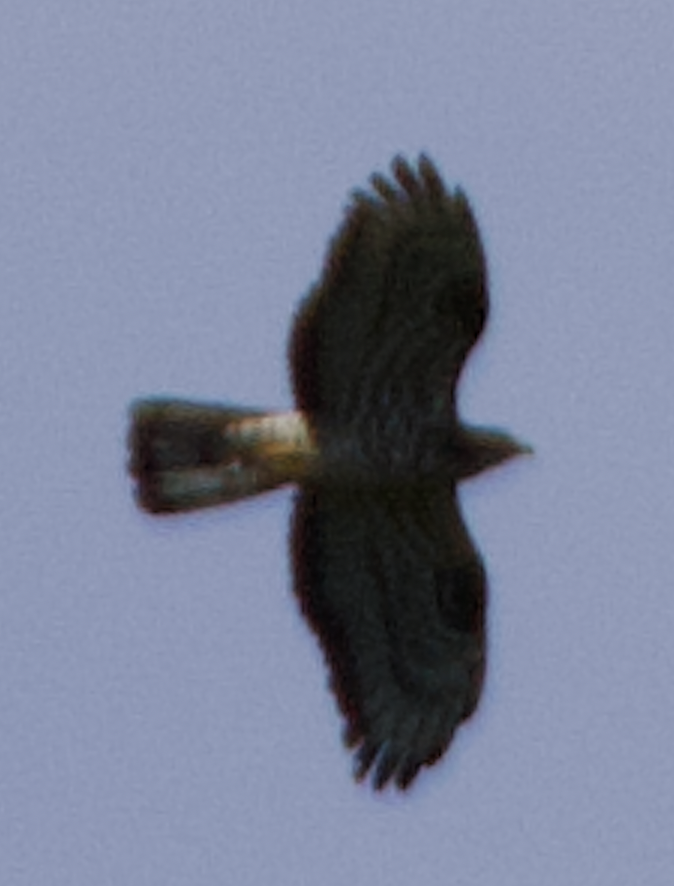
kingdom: Animalia
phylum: Chordata
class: Aves
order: Accipitriformes
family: Accipitridae
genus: Pernis
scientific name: Pernis apivorus
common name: European honey buzzard
